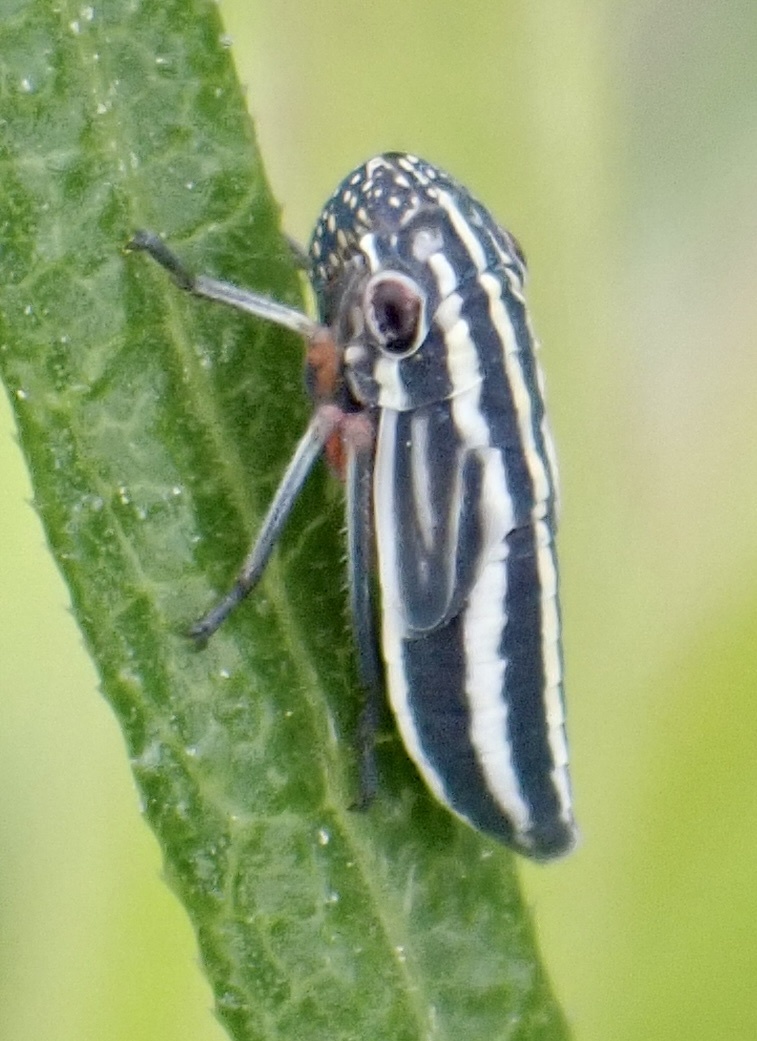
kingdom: Animalia
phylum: Arthropoda
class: Insecta
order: Hemiptera
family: Cicadellidae
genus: Cuerna
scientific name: Cuerna costalis
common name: Lateral-lined sharpshooter
